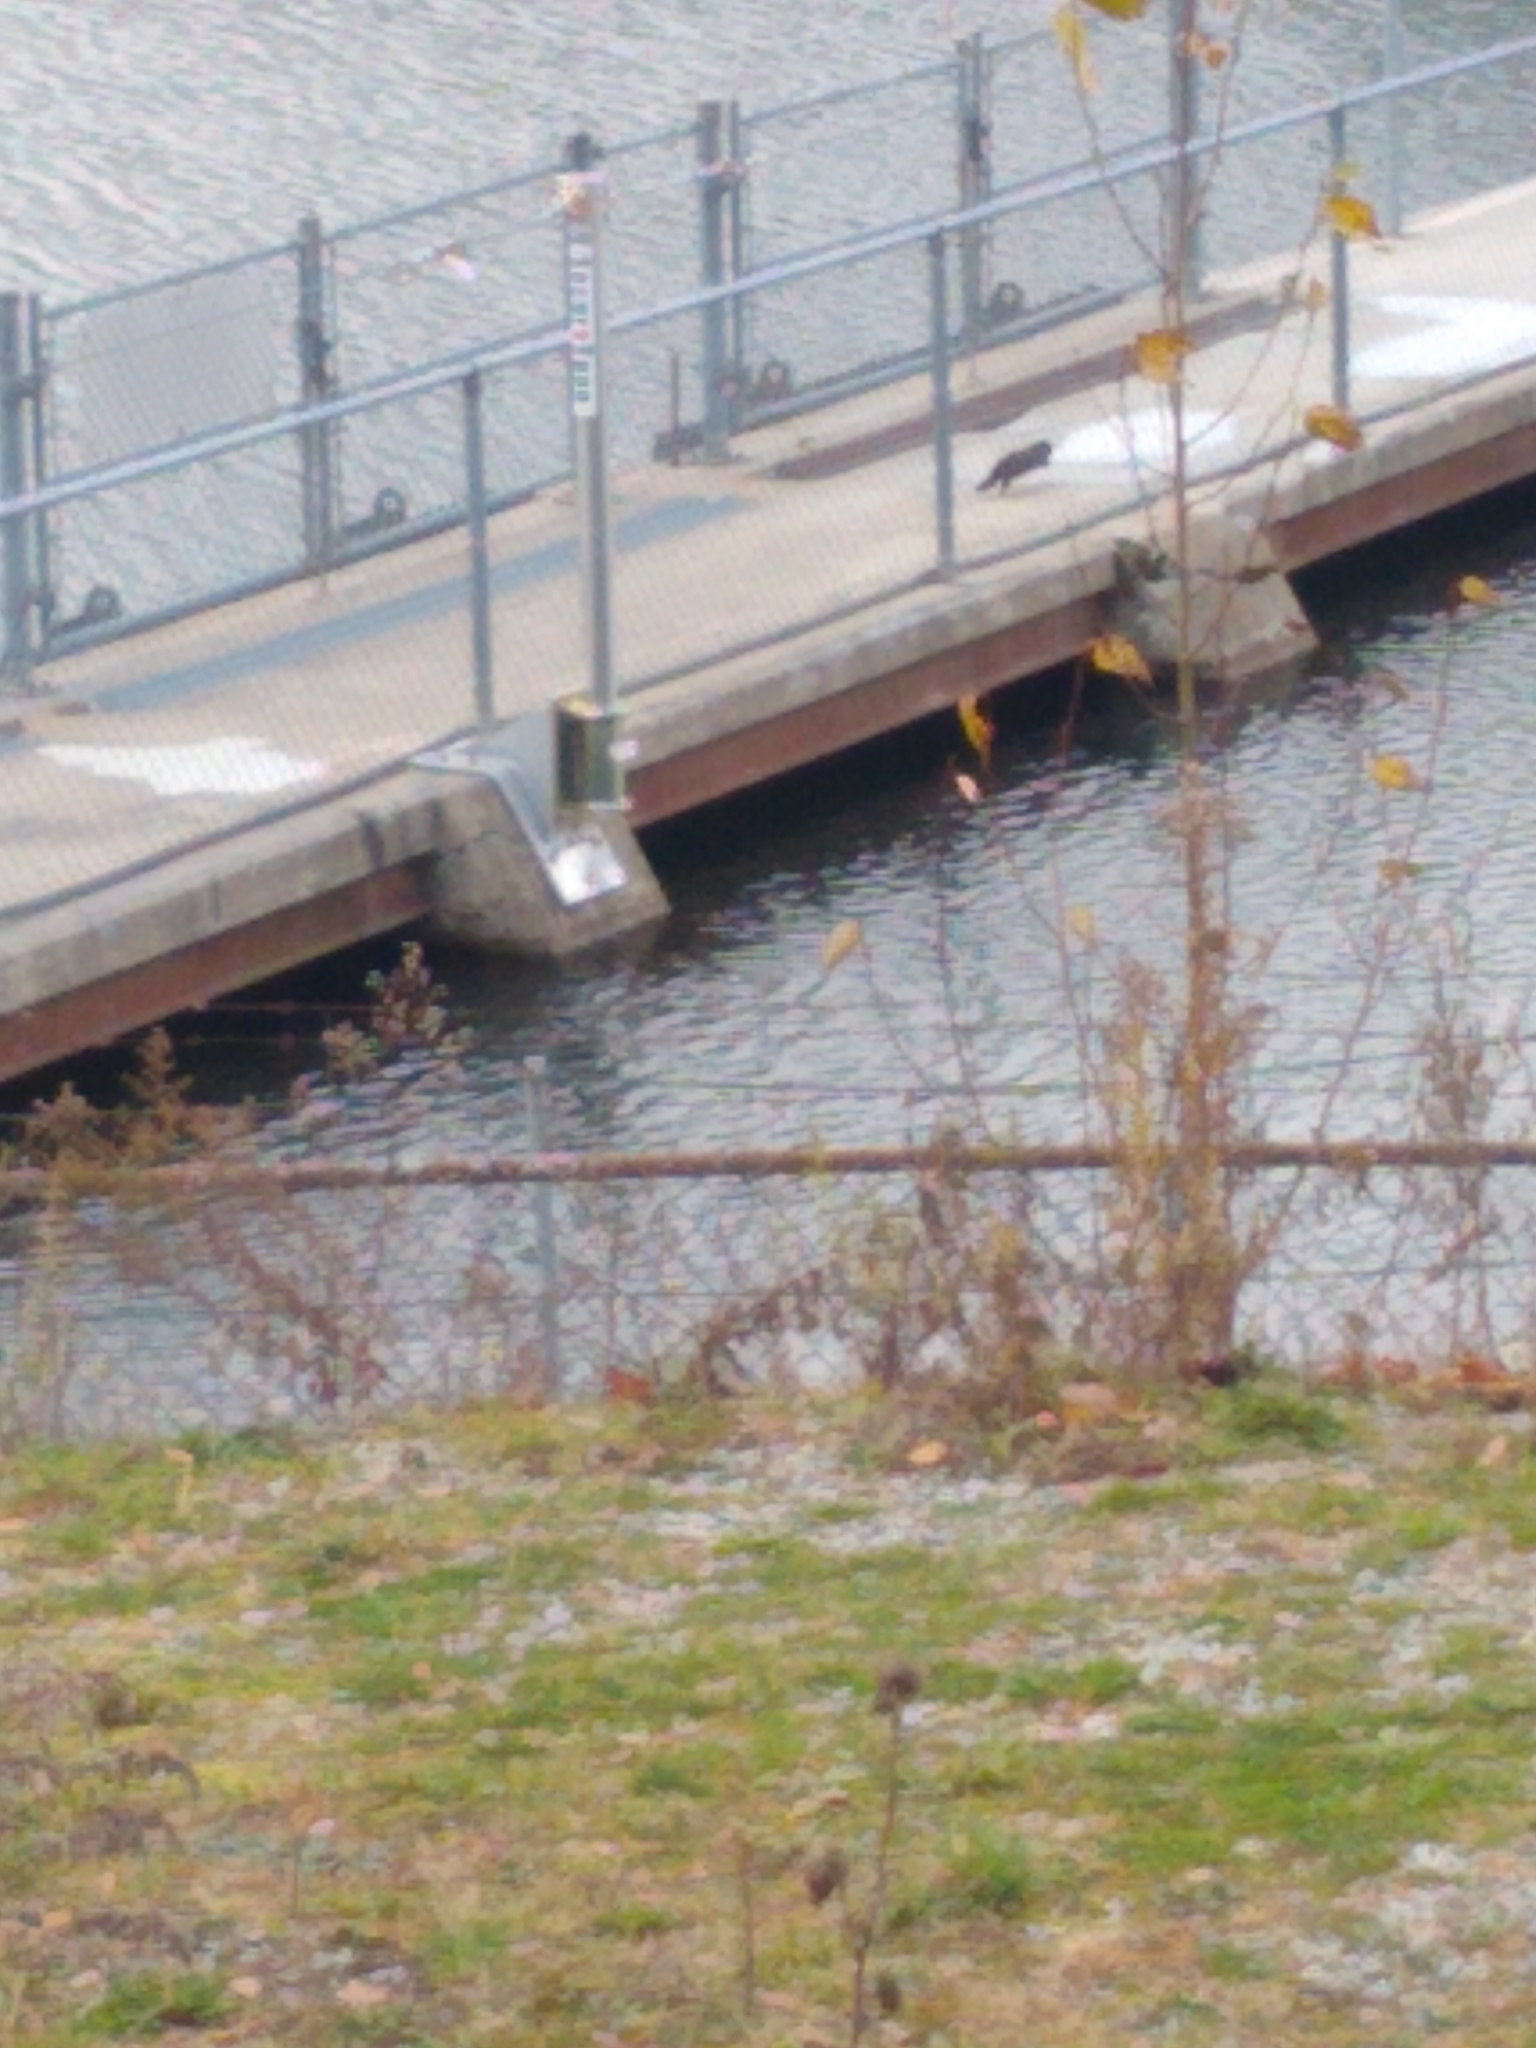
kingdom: Animalia
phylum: Chordata
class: Mammalia
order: Carnivora
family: Mustelidae
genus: Mustela
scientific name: Mustela
